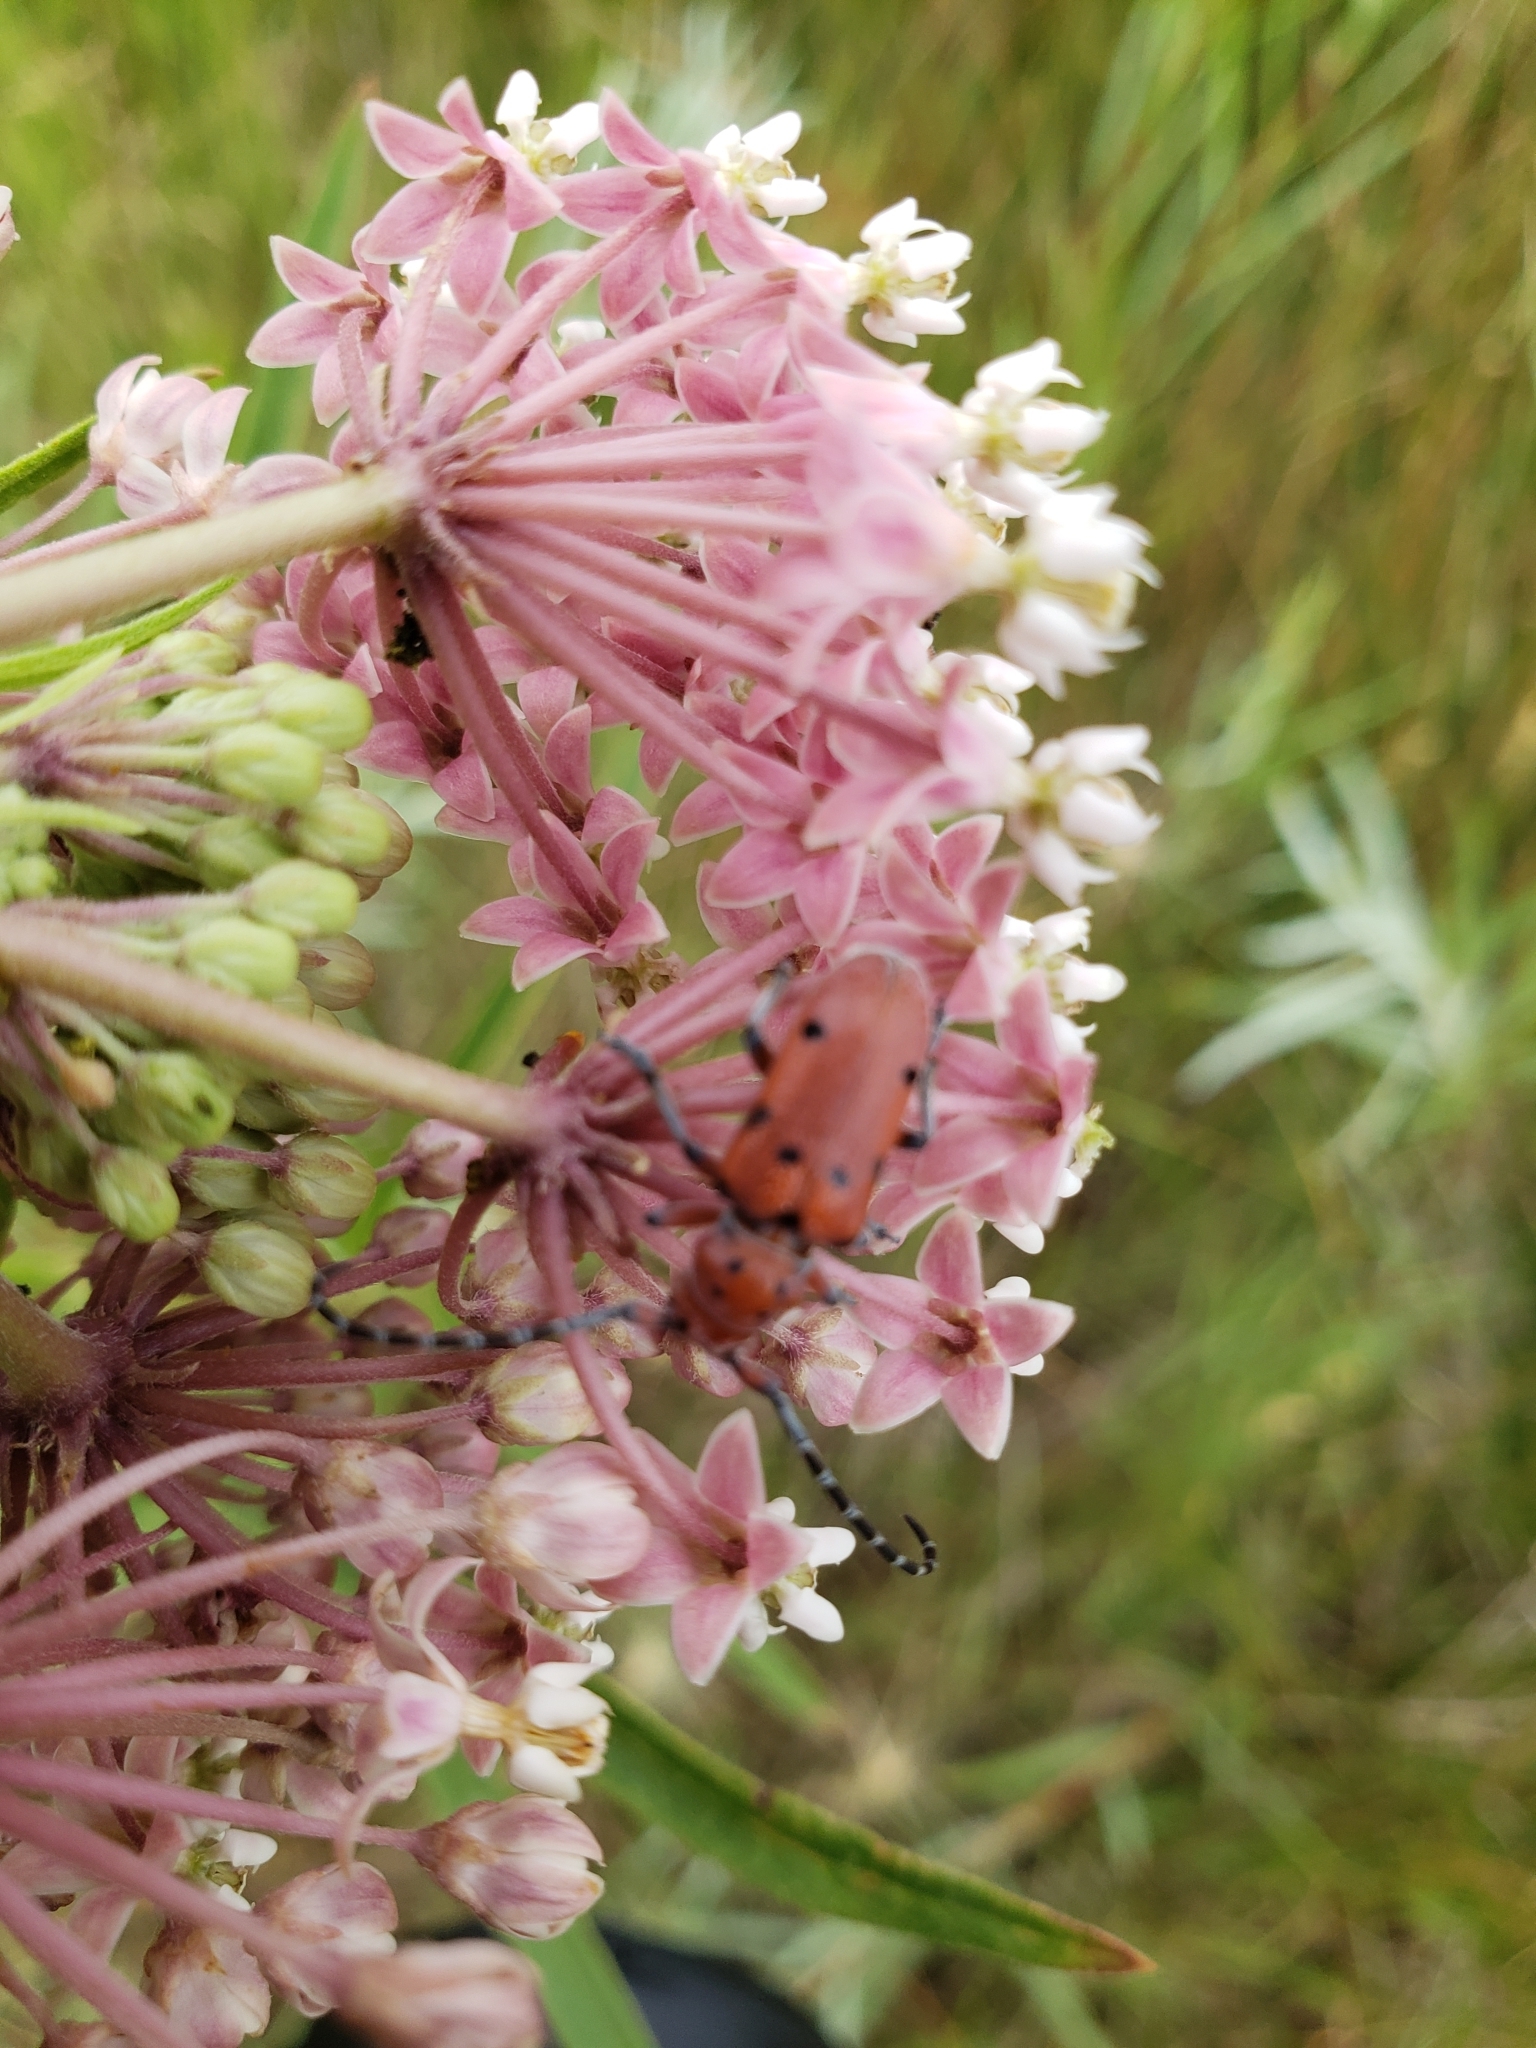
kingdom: Animalia
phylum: Arthropoda
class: Insecta
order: Coleoptera
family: Cerambycidae
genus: Tetraopes
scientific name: Tetraopes femoratus
